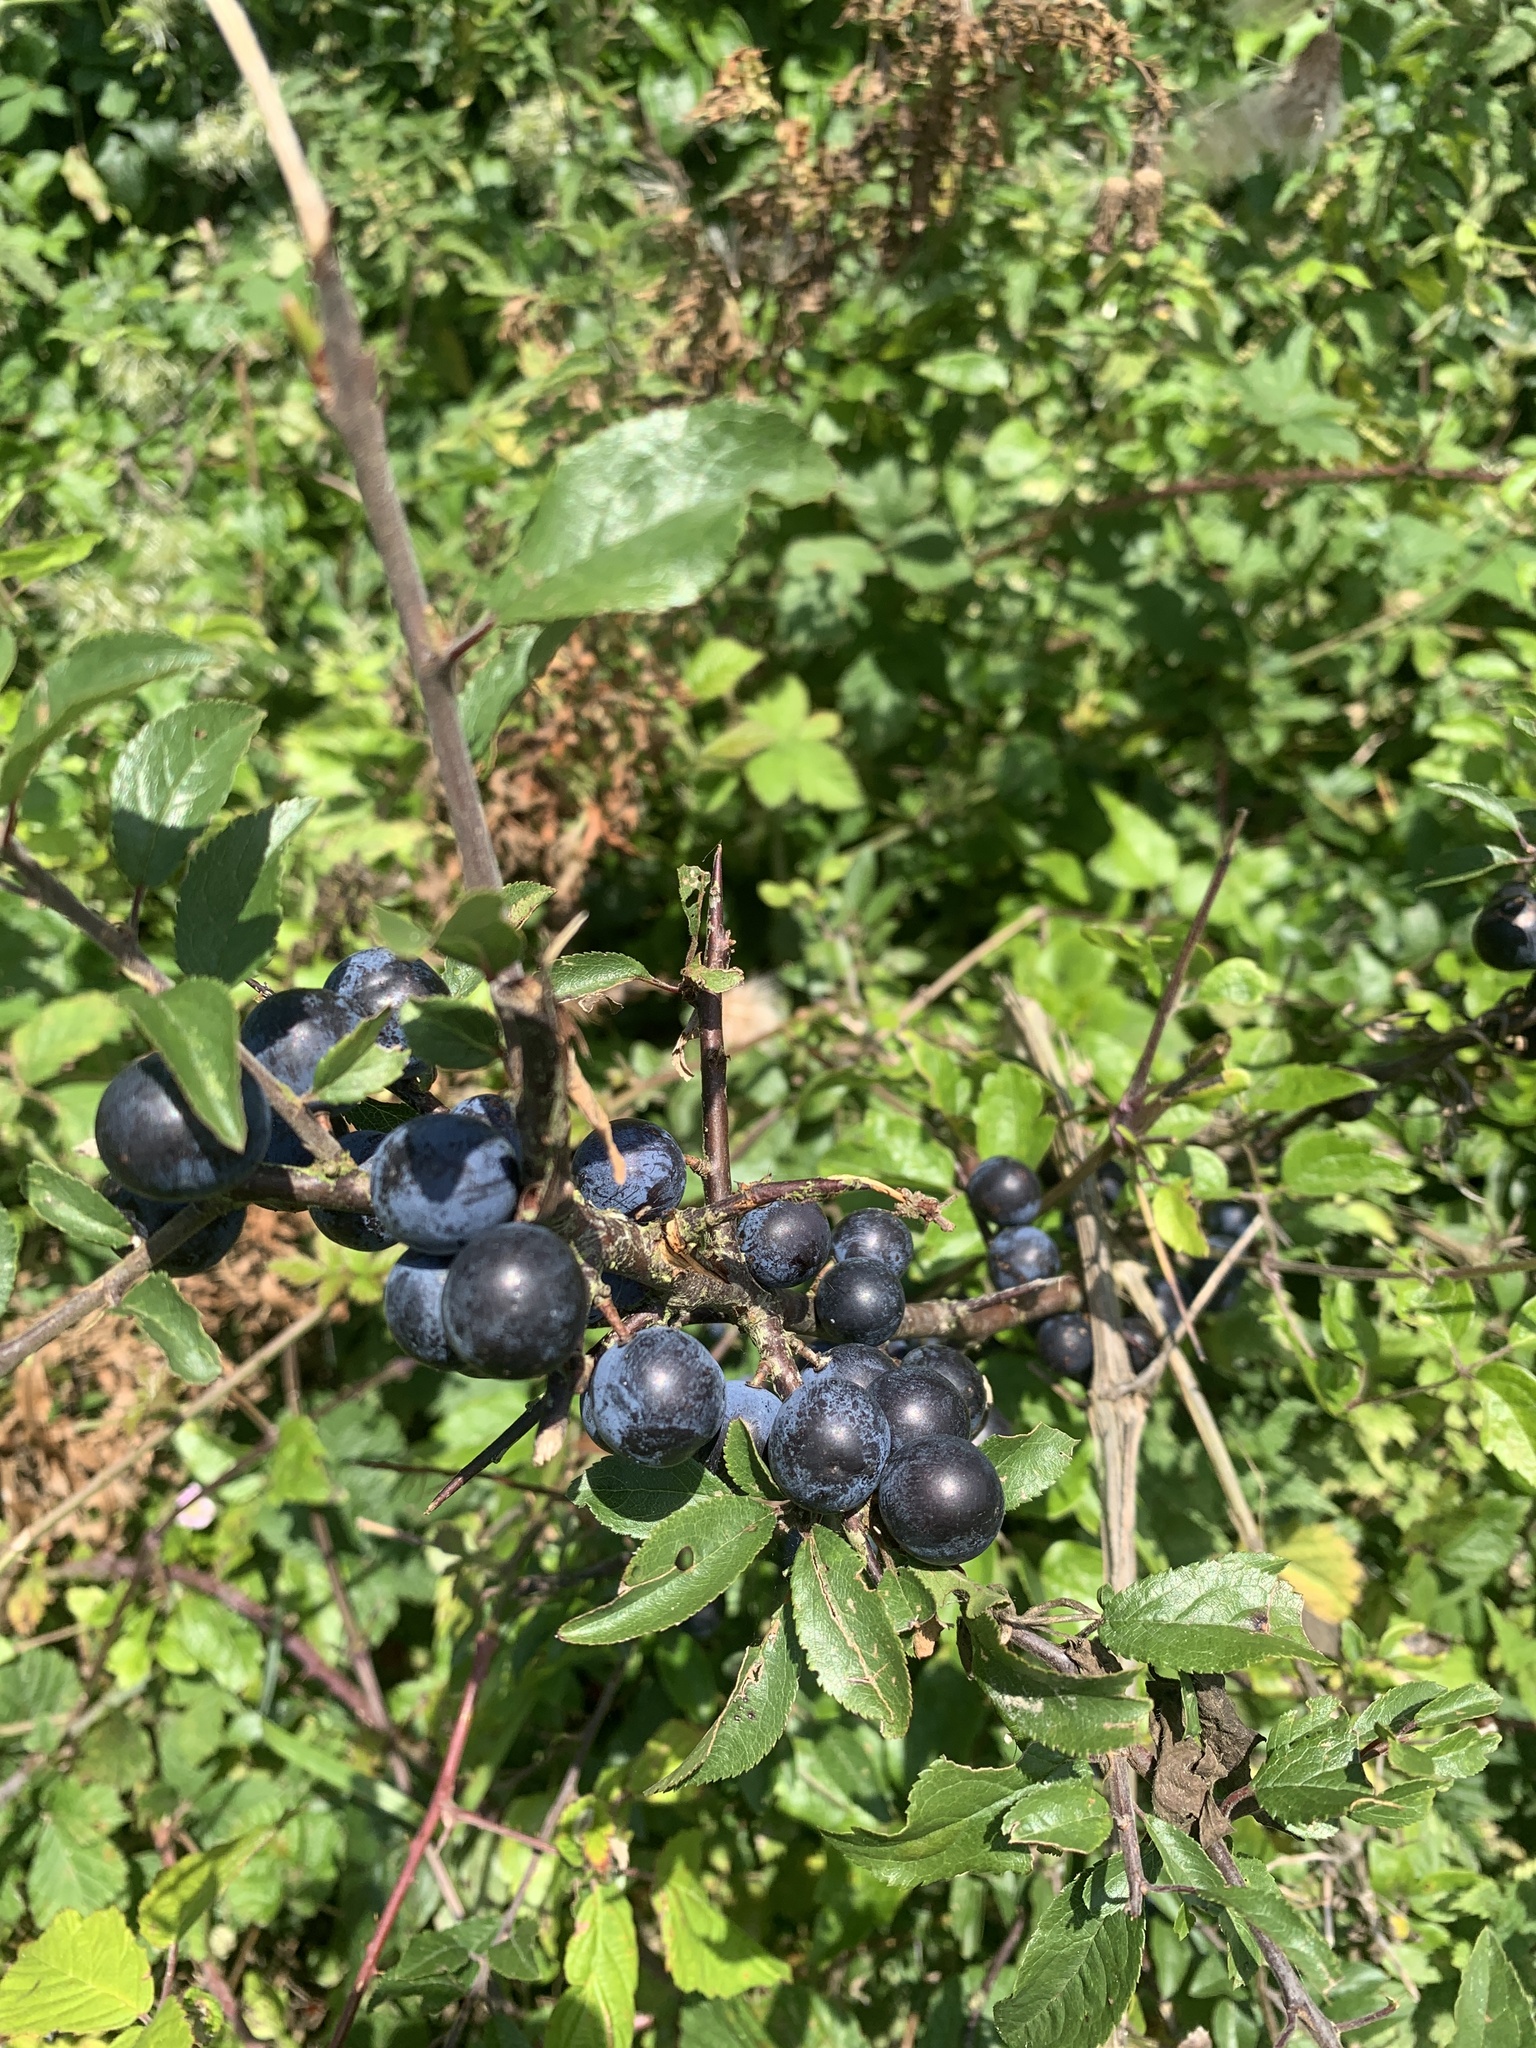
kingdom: Plantae
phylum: Tracheophyta
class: Magnoliopsida
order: Rosales
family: Rosaceae
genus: Prunus
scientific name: Prunus spinosa
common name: Blackthorn
